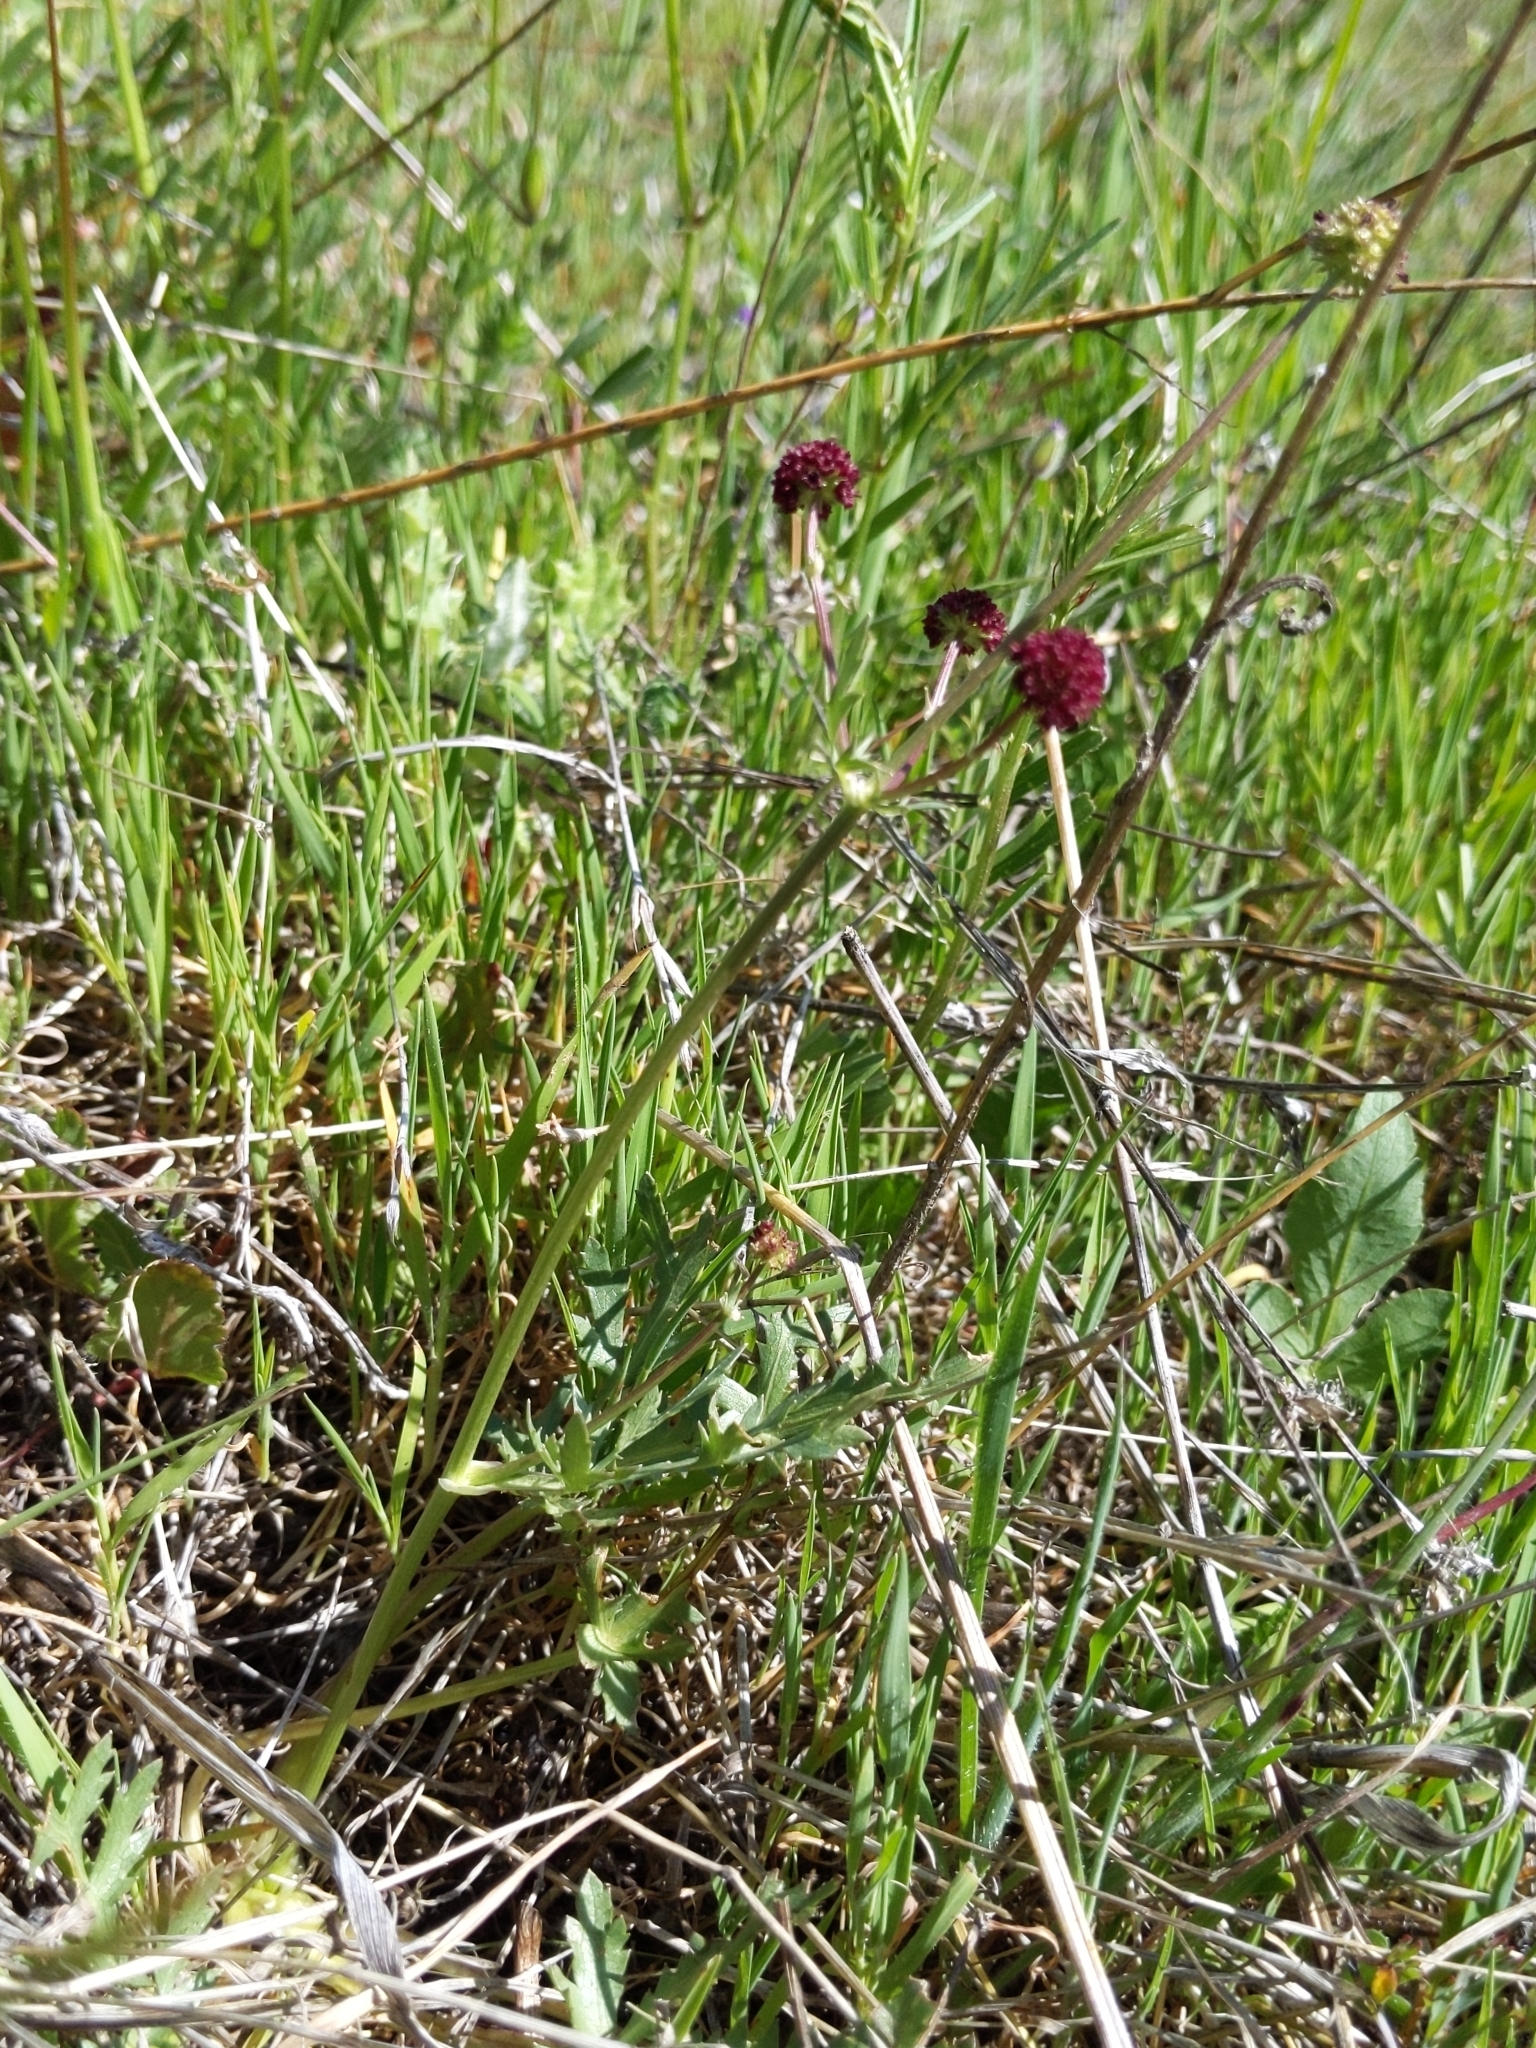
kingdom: Plantae
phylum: Tracheophyta
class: Magnoliopsida
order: Apiales
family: Apiaceae
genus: Sanicula
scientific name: Sanicula bipinnatifida
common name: Shoe-buttons
